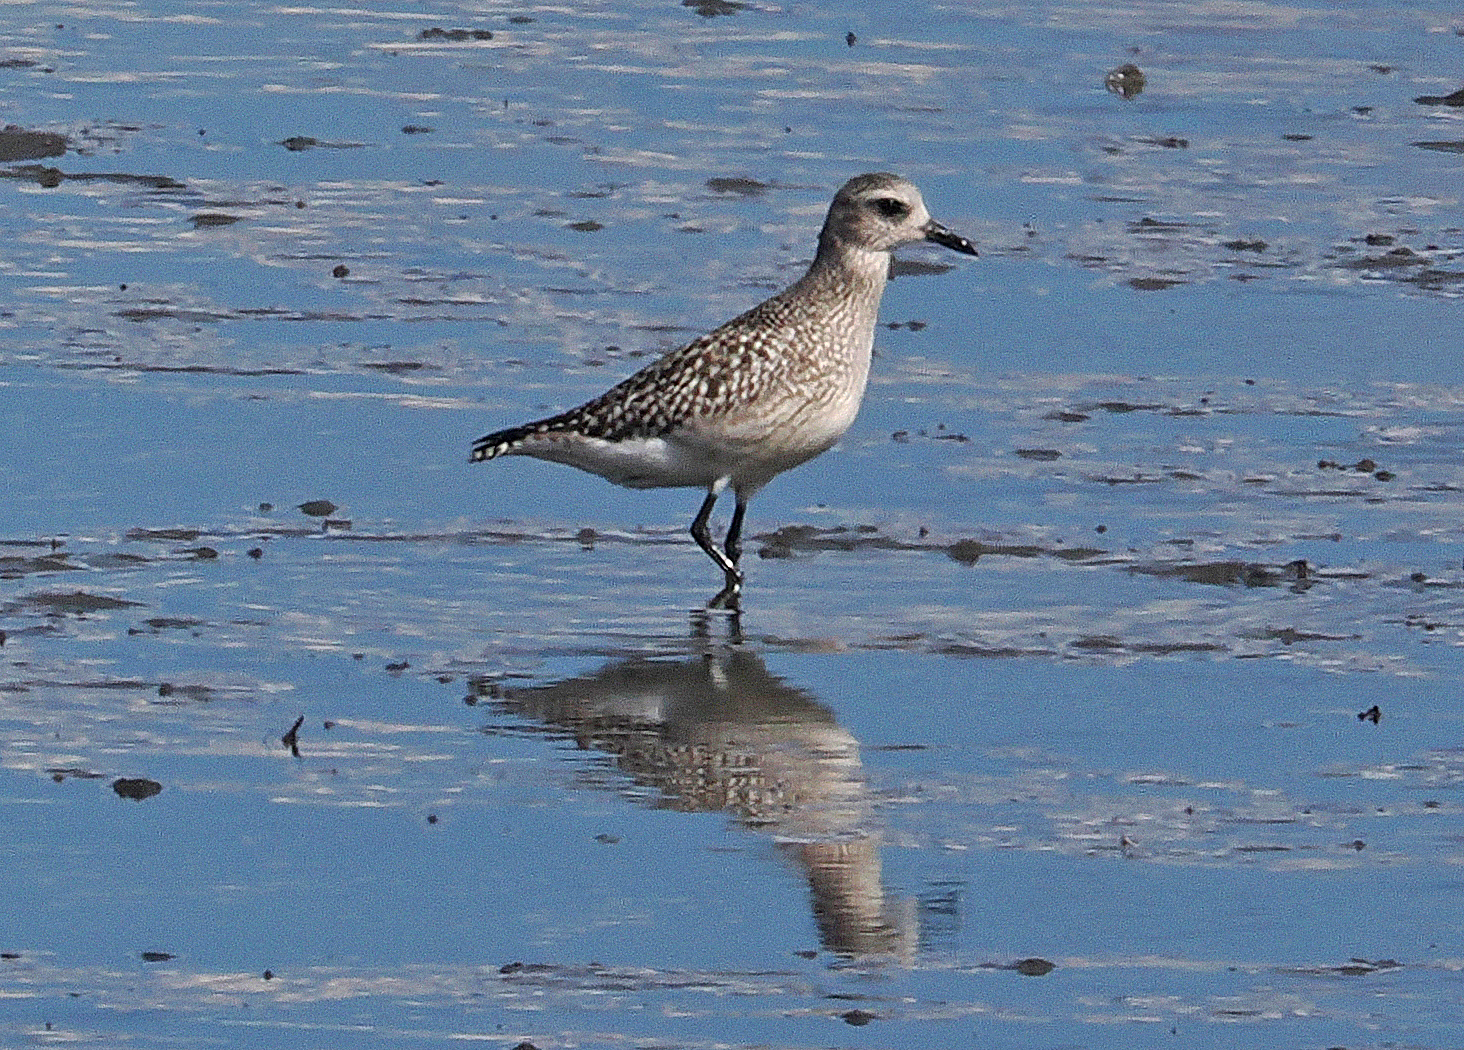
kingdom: Animalia
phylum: Chordata
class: Aves
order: Charadriiformes
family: Charadriidae
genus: Pluvialis
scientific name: Pluvialis squatarola
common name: Grey plover
